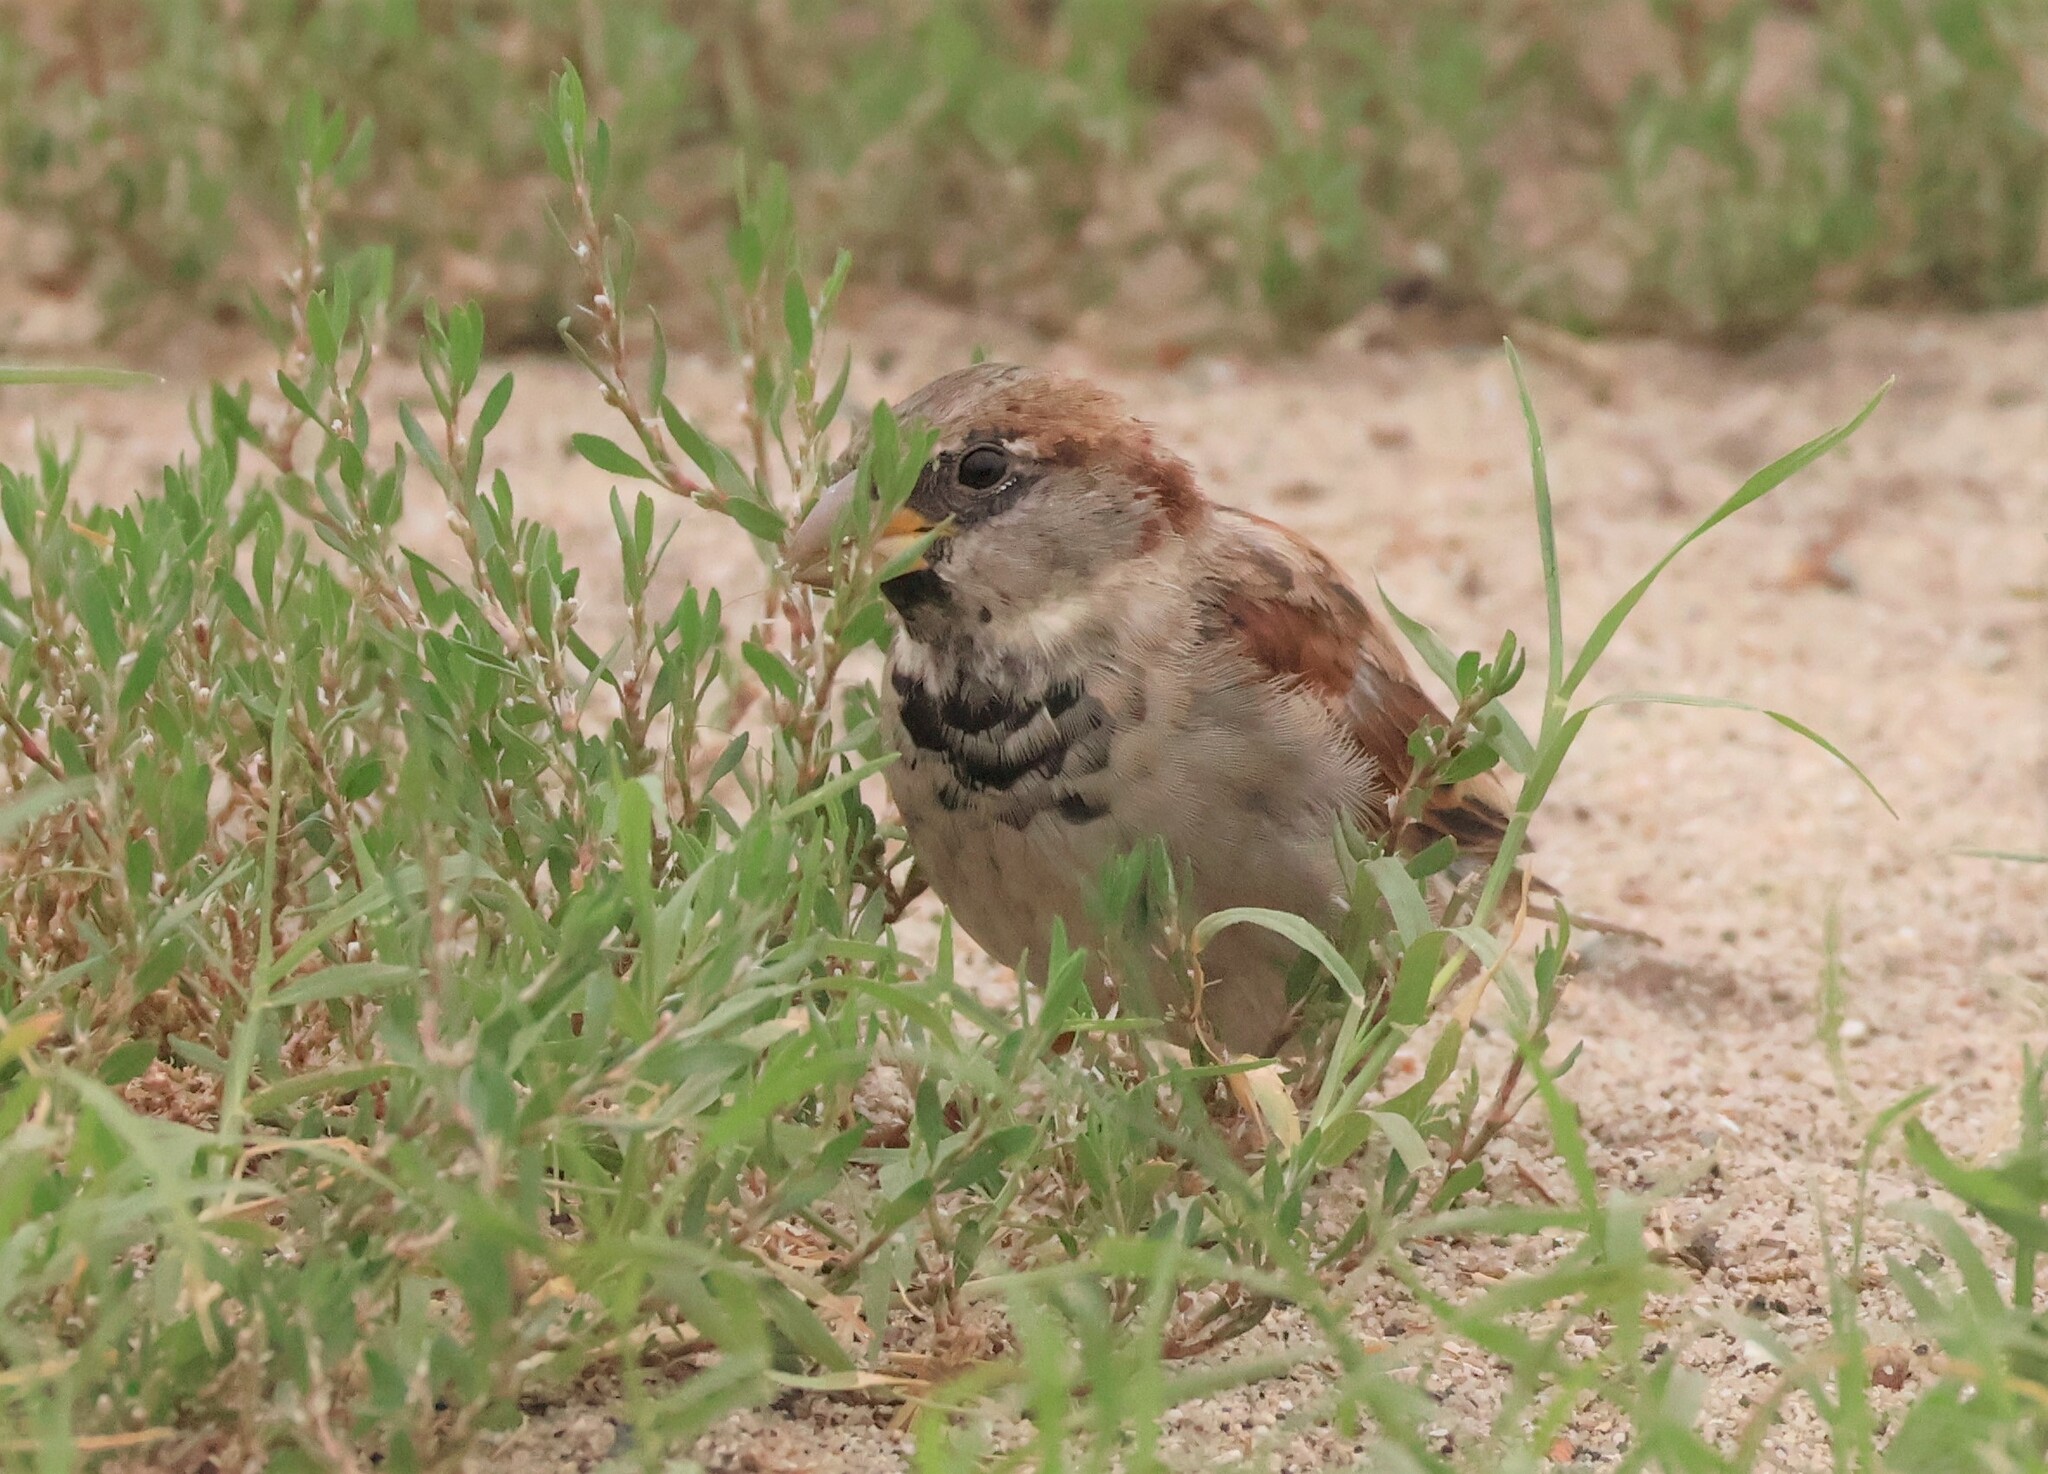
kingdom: Animalia
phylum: Chordata
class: Aves
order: Passeriformes
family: Passeridae
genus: Passer
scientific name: Passer domesticus
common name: House sparrow
